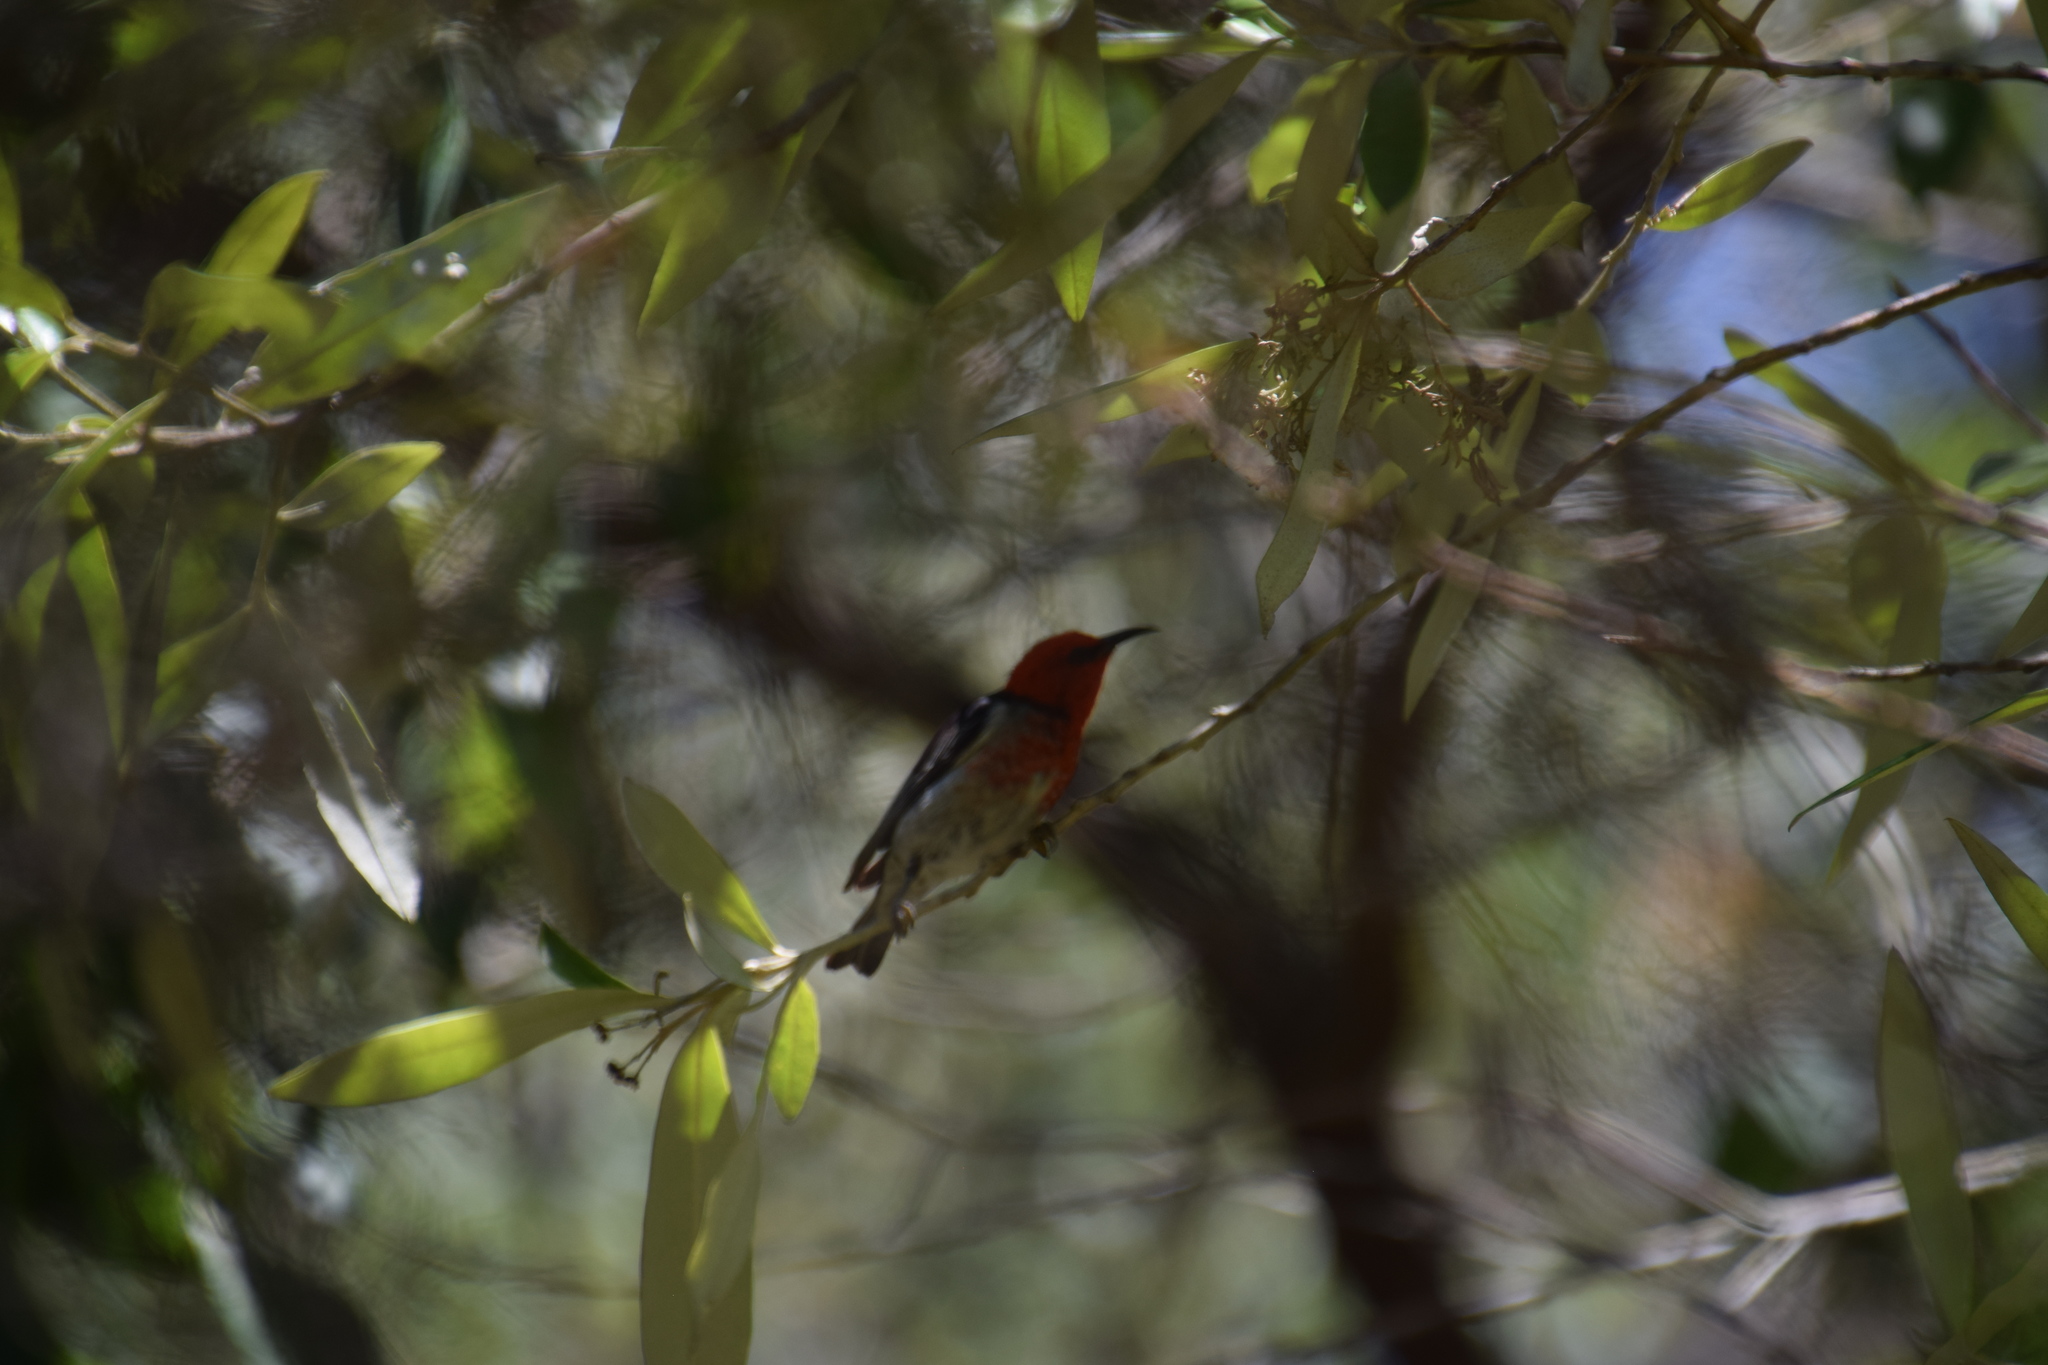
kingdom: Animalia
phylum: Chordata
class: Aves
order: Passeriformes
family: Meliphagidae
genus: Myzomela
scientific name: Myzomela sanguinolenta
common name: Scarlet myzomela
